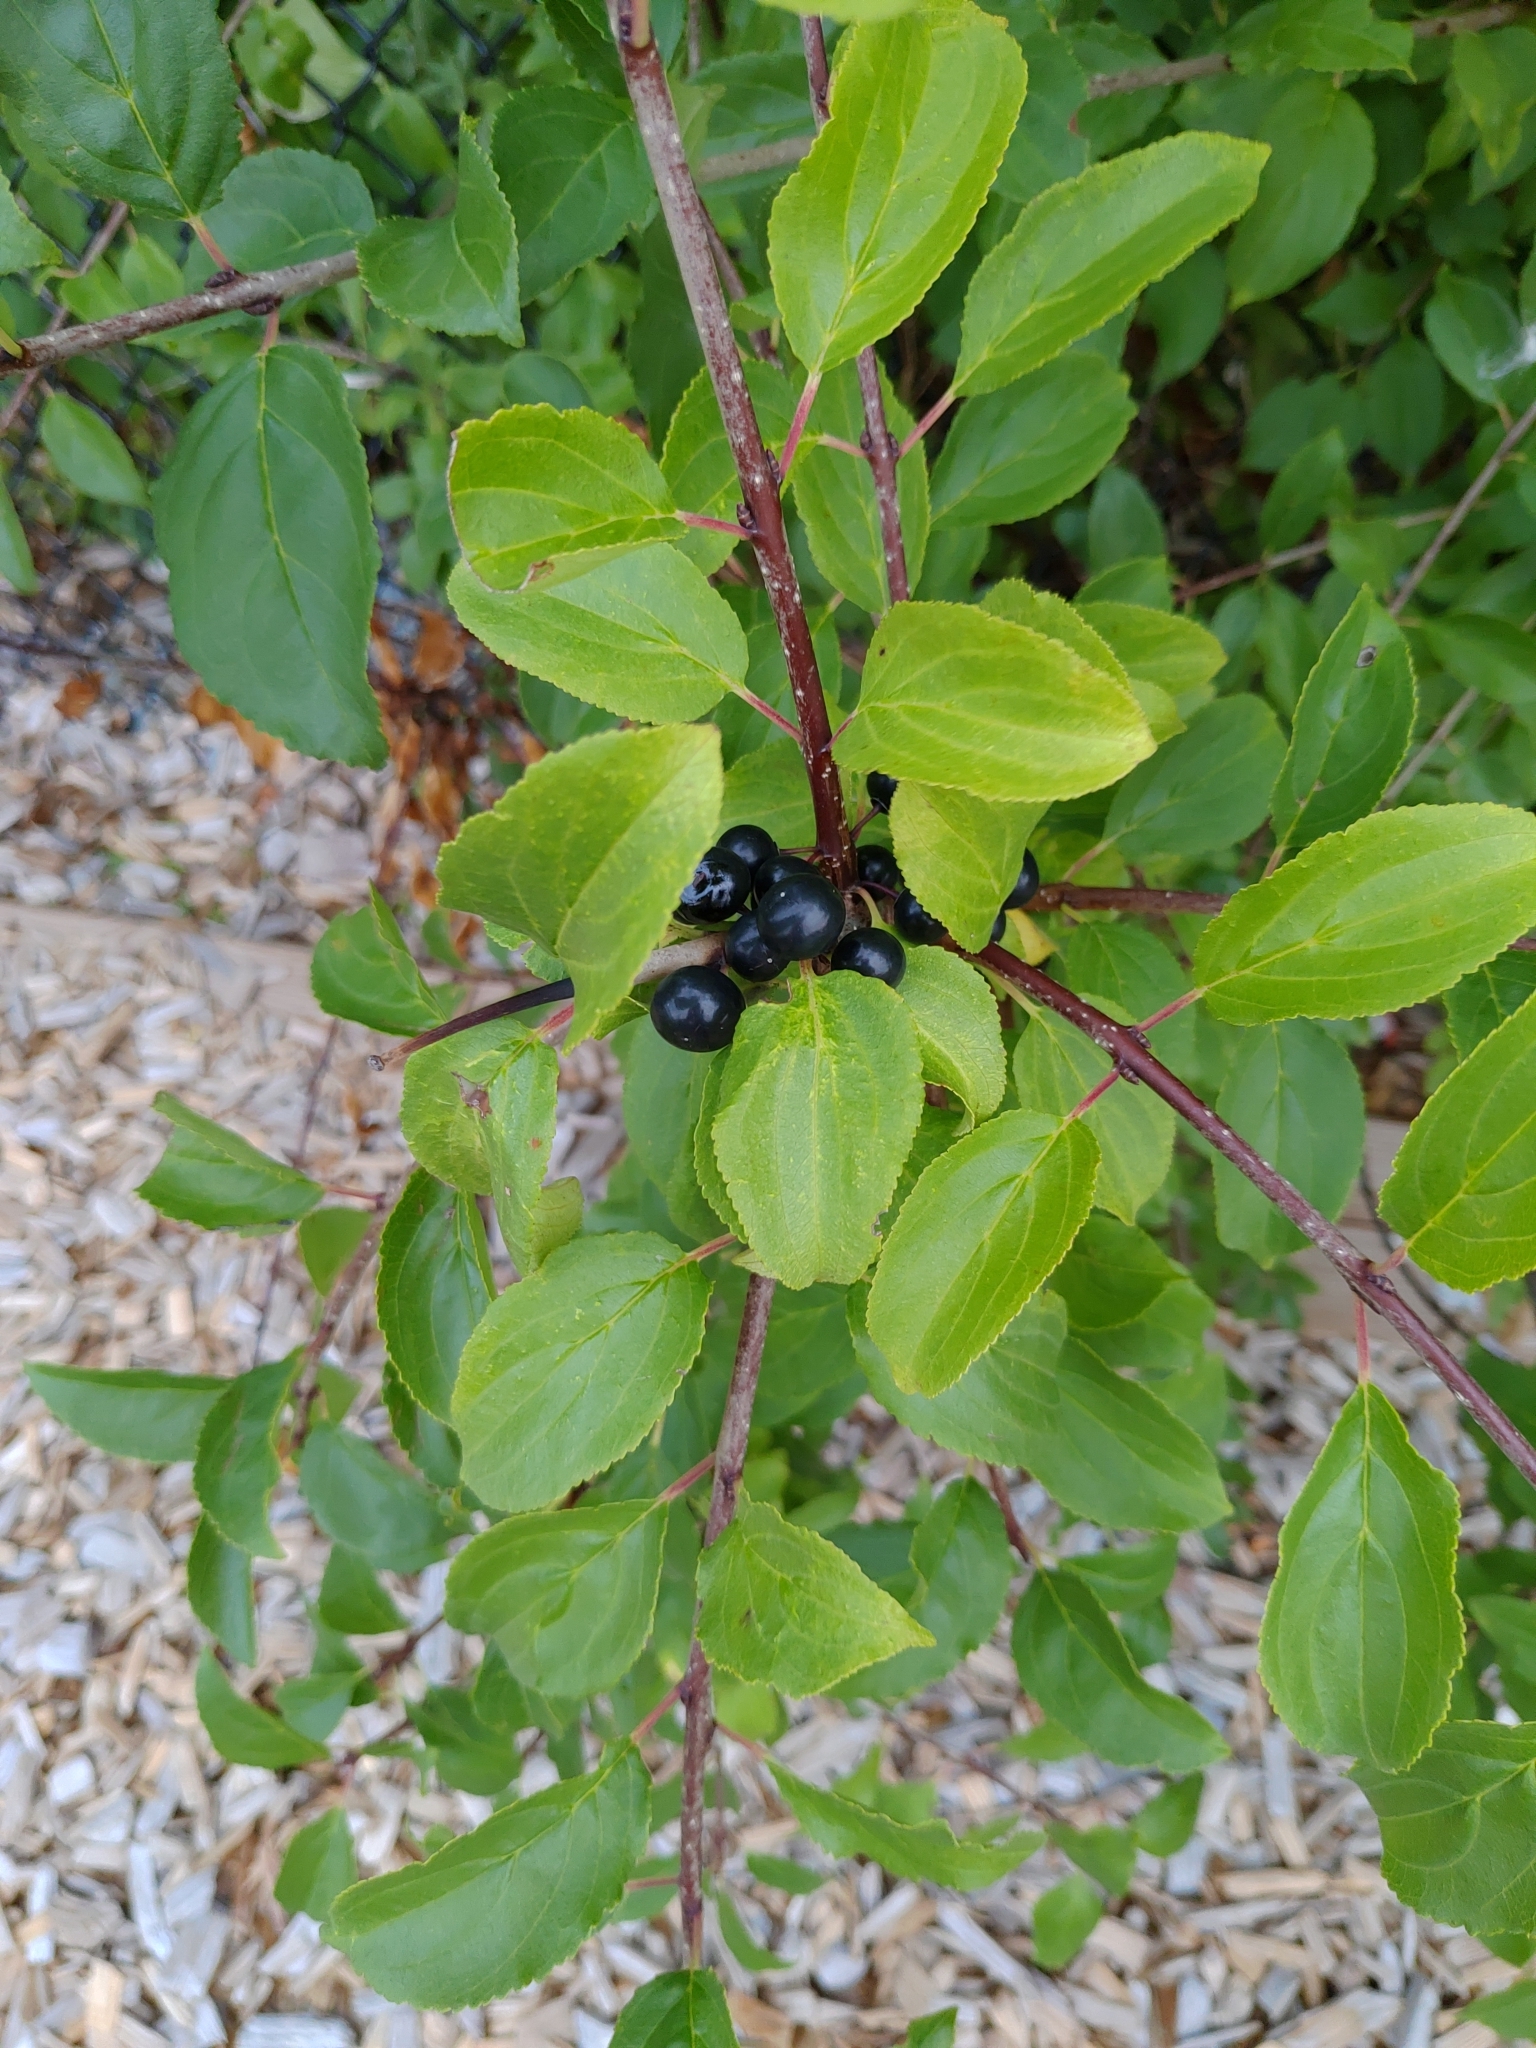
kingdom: Plantae
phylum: Tracheophyta
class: Magnoliopsida
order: Rosales
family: Rhamnaceae
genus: Rhamnus
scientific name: Rhamnus cathartica
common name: Common buckthorn
